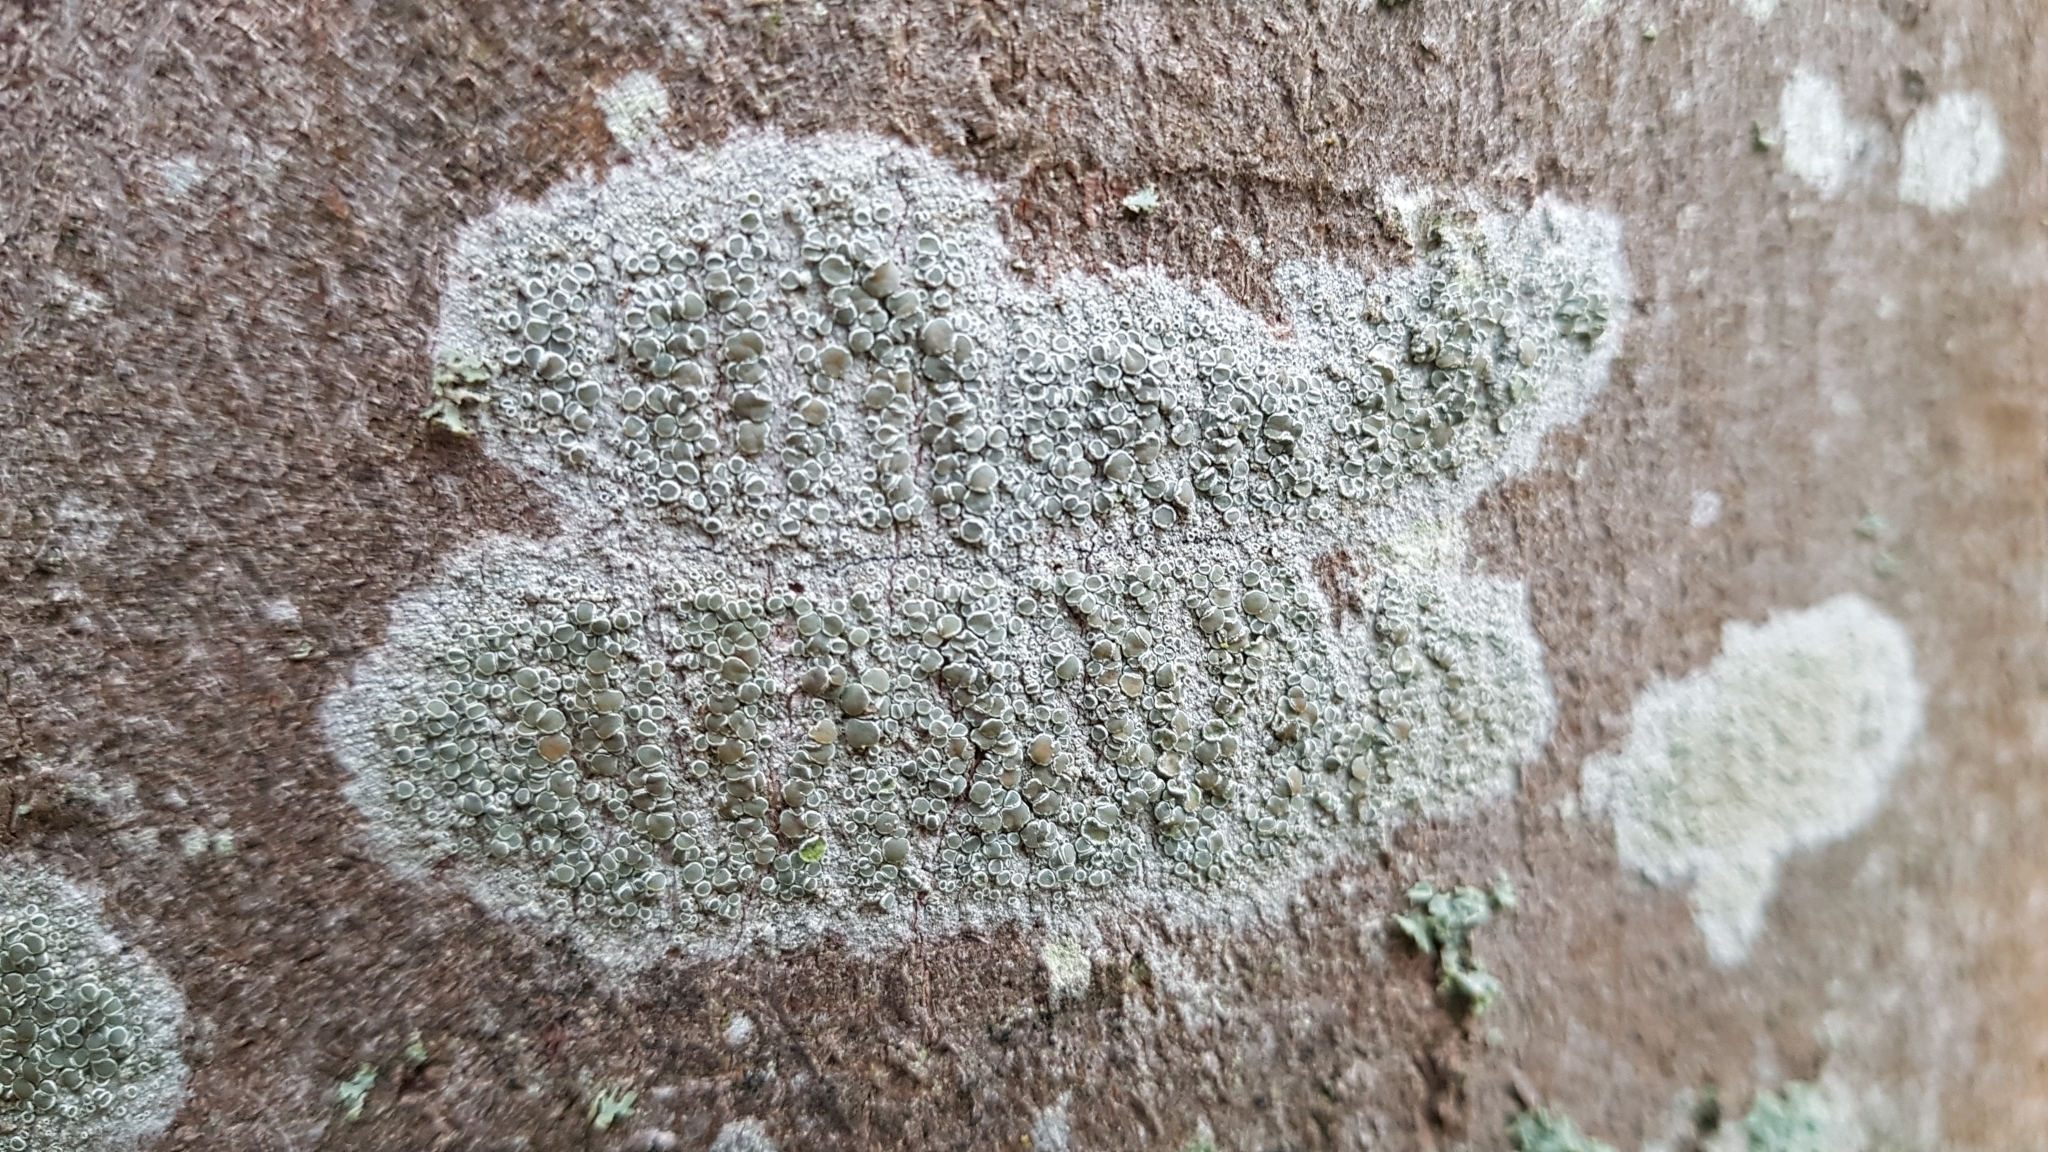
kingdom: Fungi
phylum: Ascomycota
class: Lecanoromycetes
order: Lecanorales
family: Lecanoraceae
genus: Lecanora
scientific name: Lecanora chlarotera
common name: Brown rim-lichen
